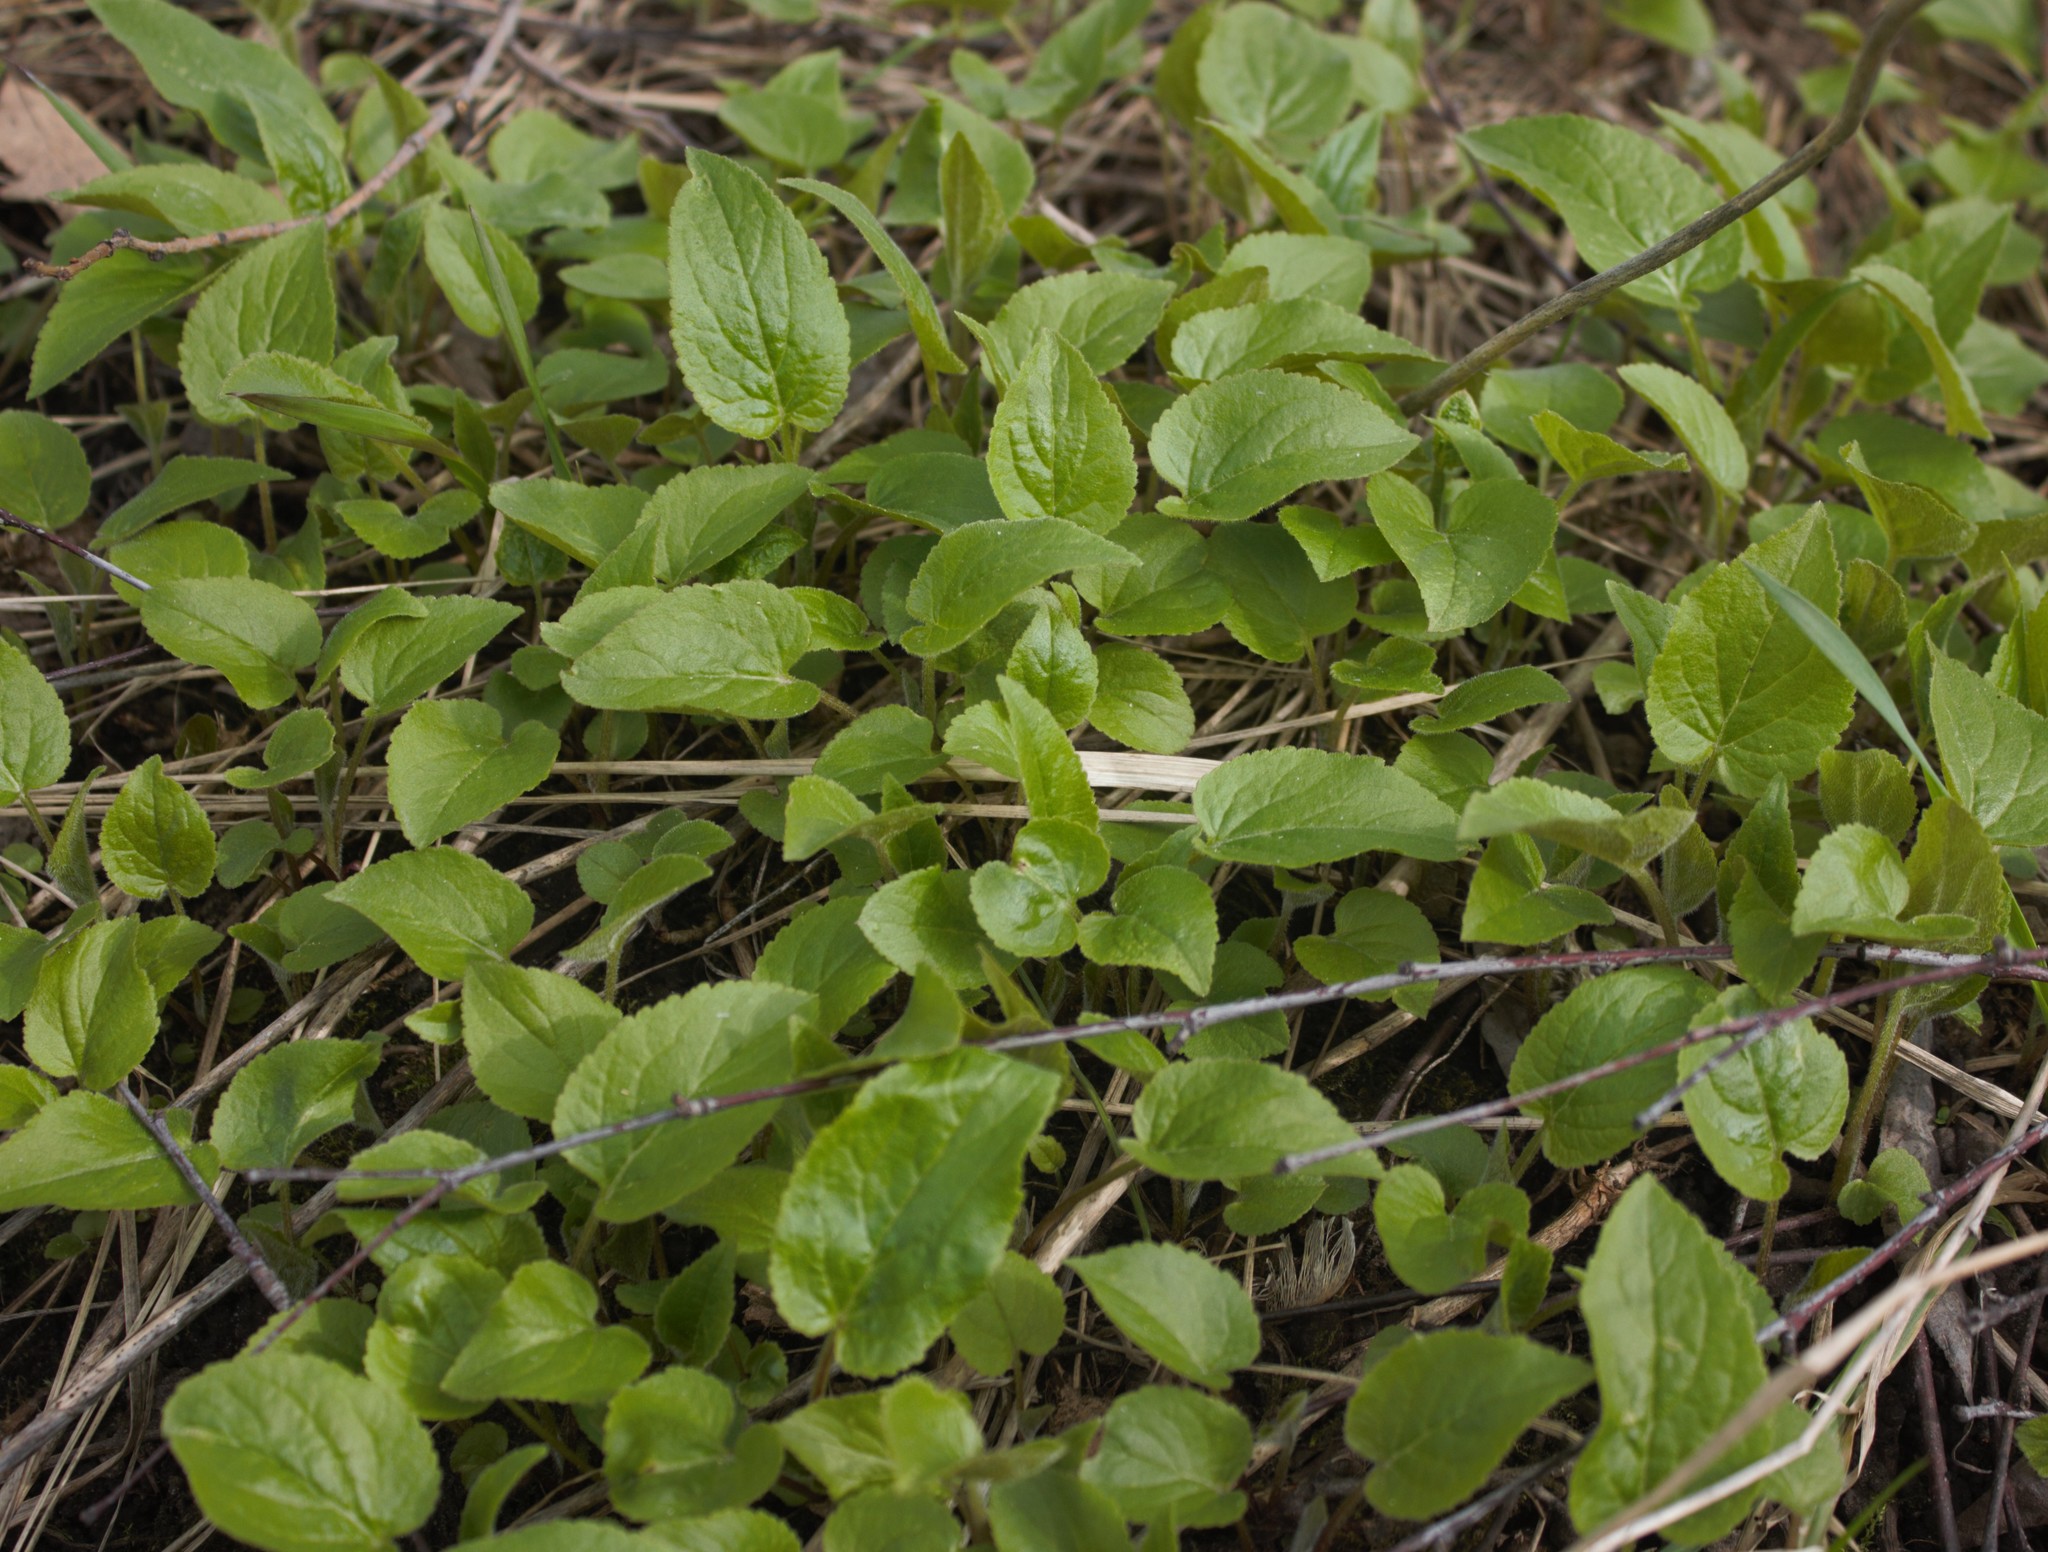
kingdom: Plantae
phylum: Tracheophyta
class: Magnoliopsida
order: Asterales
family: Campanulaceae
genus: Campanula
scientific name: Campanula rapunculoides
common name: Creeping bellflower
